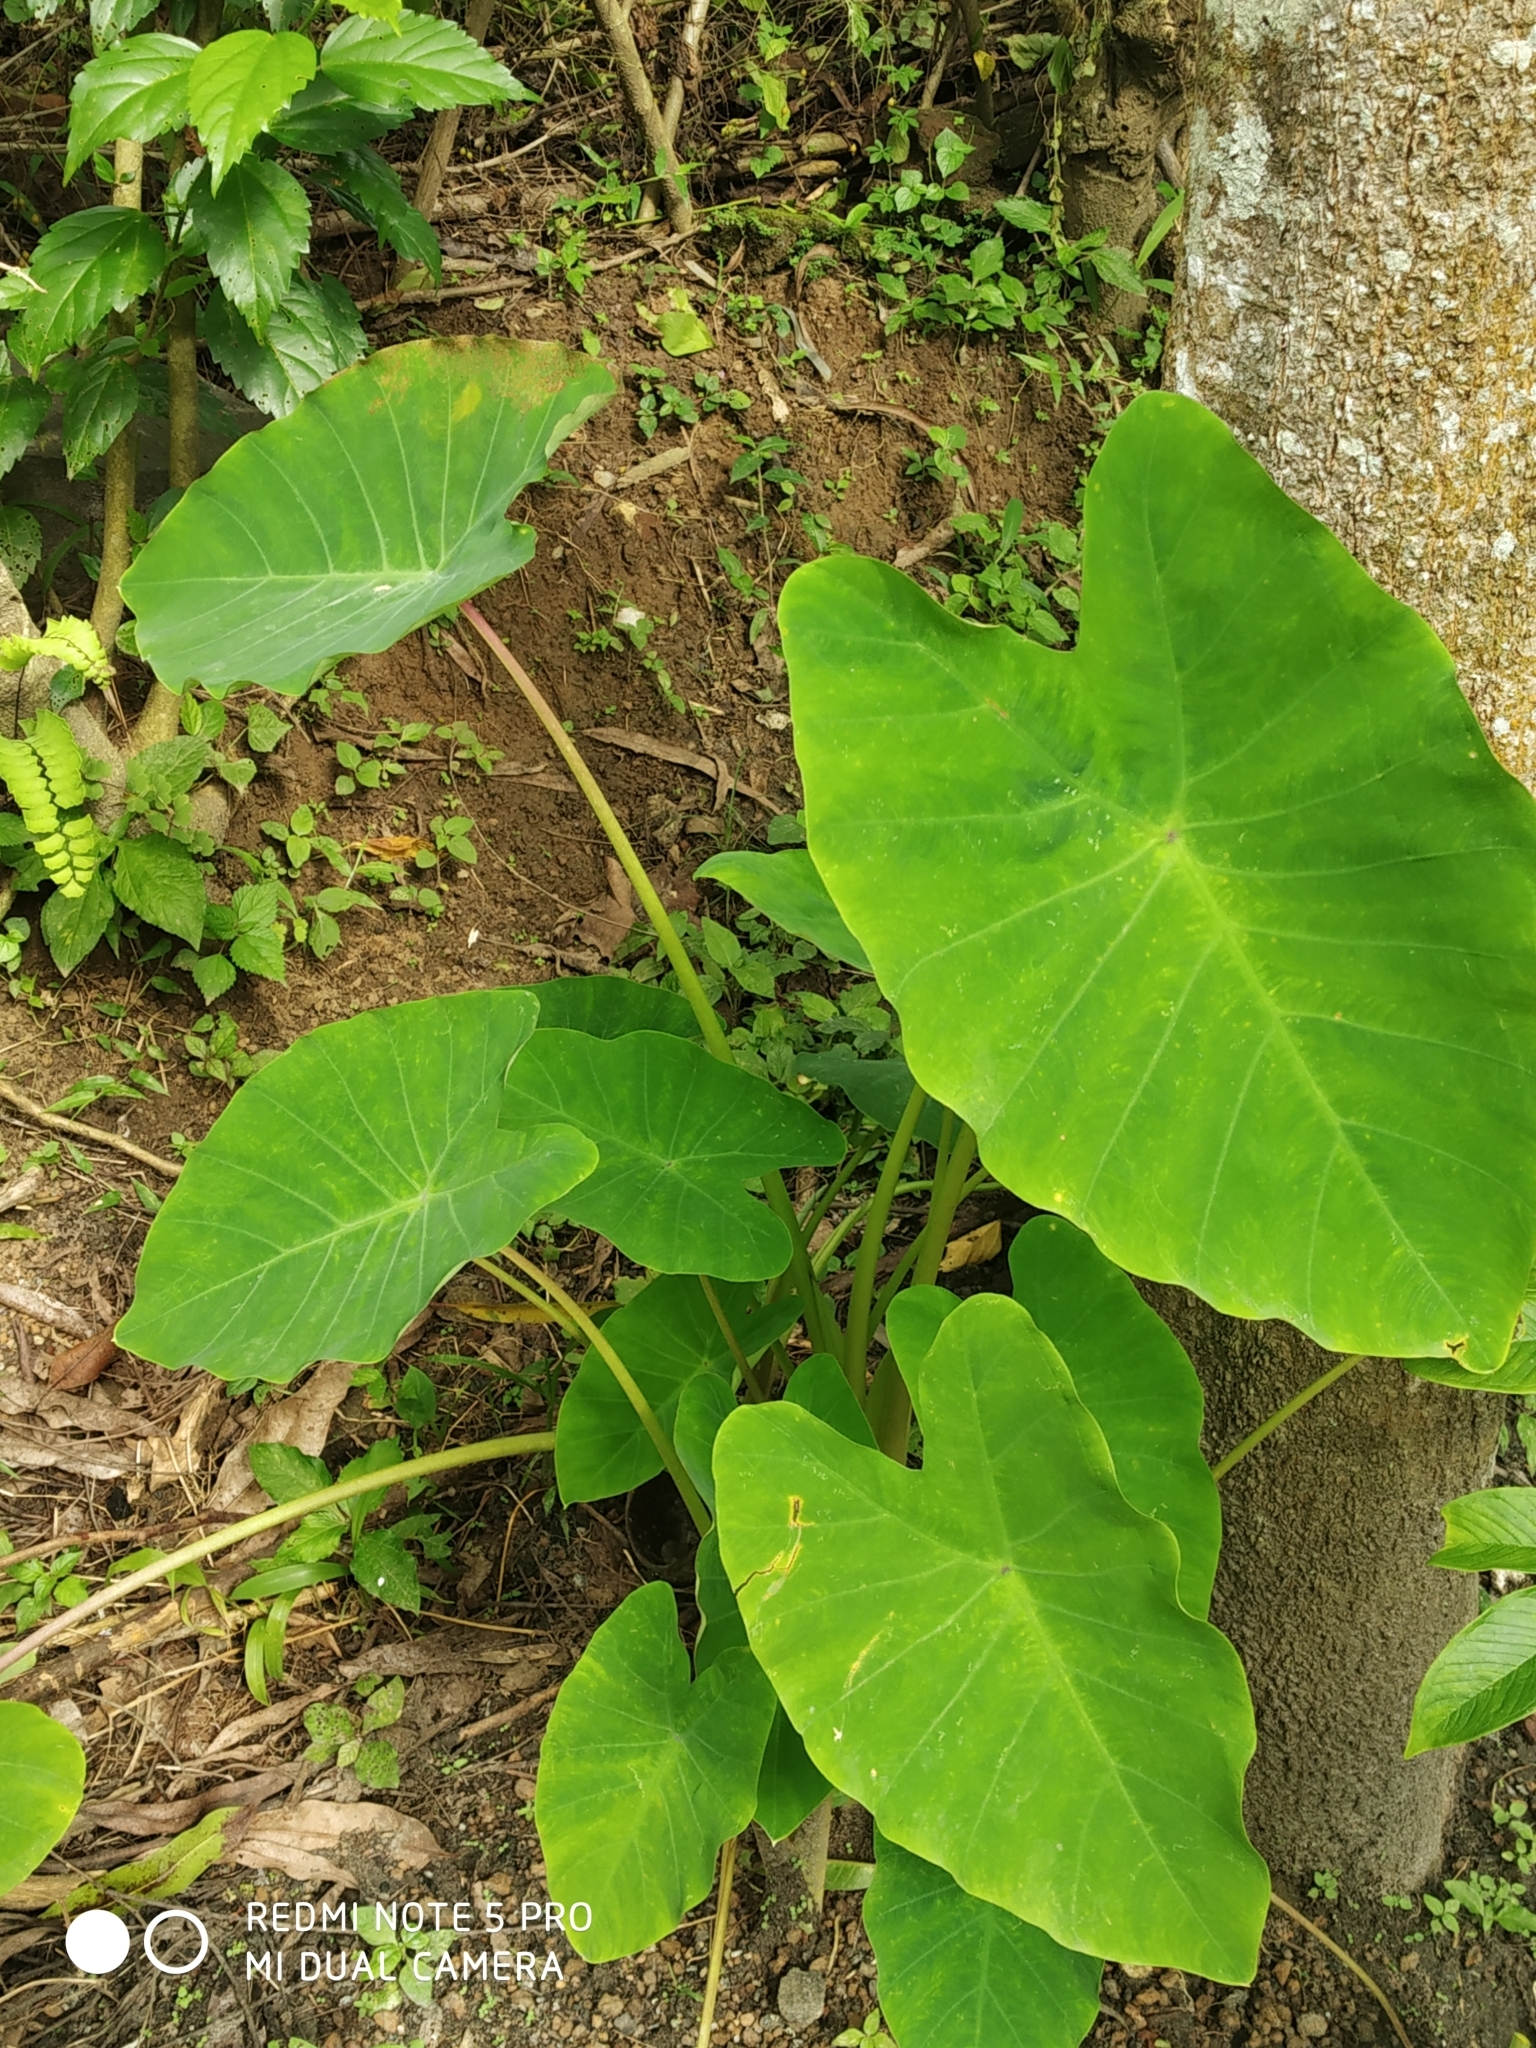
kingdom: Plantae
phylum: Tracheophyta
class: Liliopsida
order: Alismatales
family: Araceae
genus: Colocasia
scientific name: Colocasia esculenta
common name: Taro
